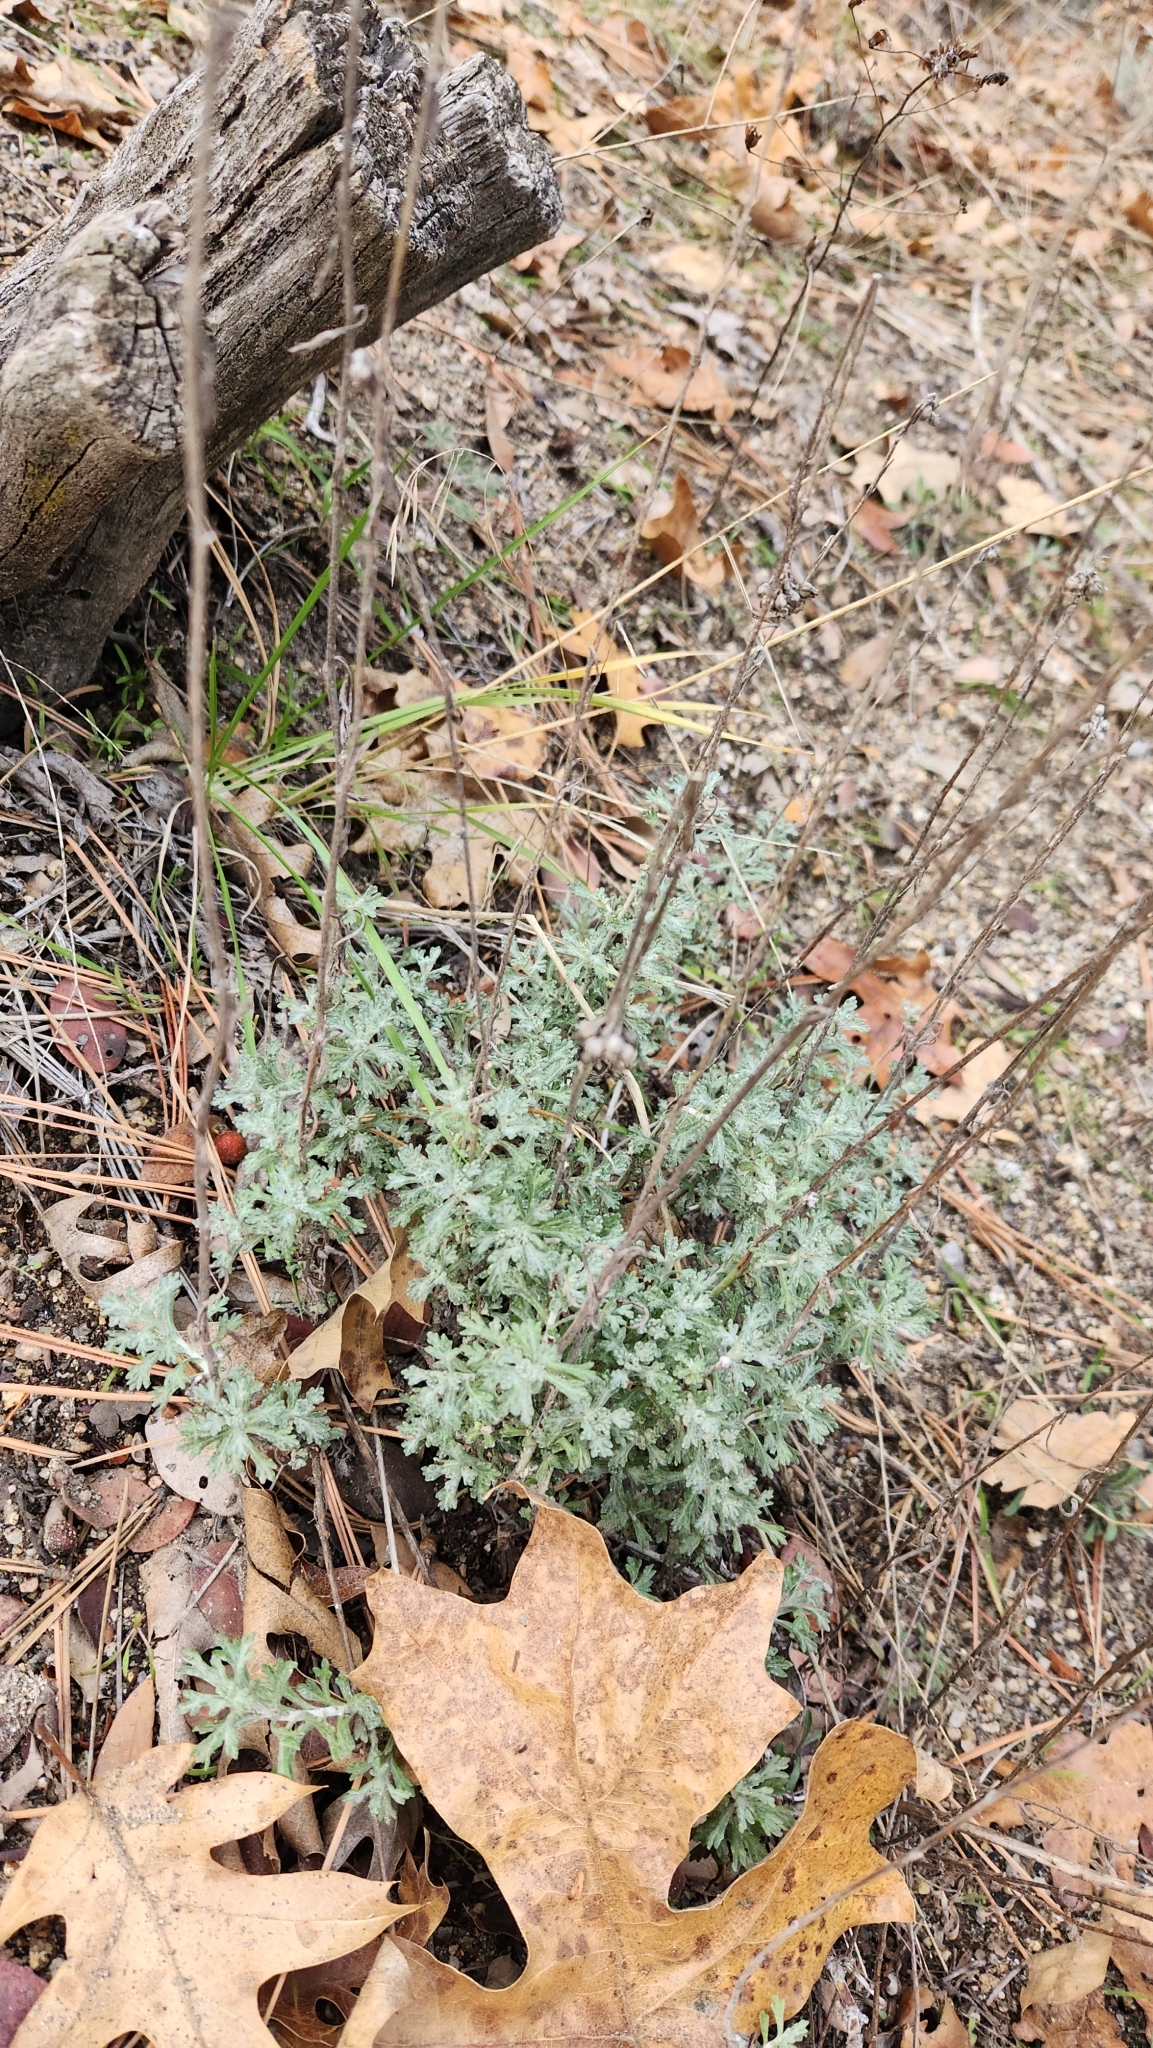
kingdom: Plantae
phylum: Tracheophyta
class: Magnoliopsida
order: Asterales
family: Asteraceae
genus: Eriophyllum
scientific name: Eriophyllum confertiflorum
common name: Golden-yarrow
